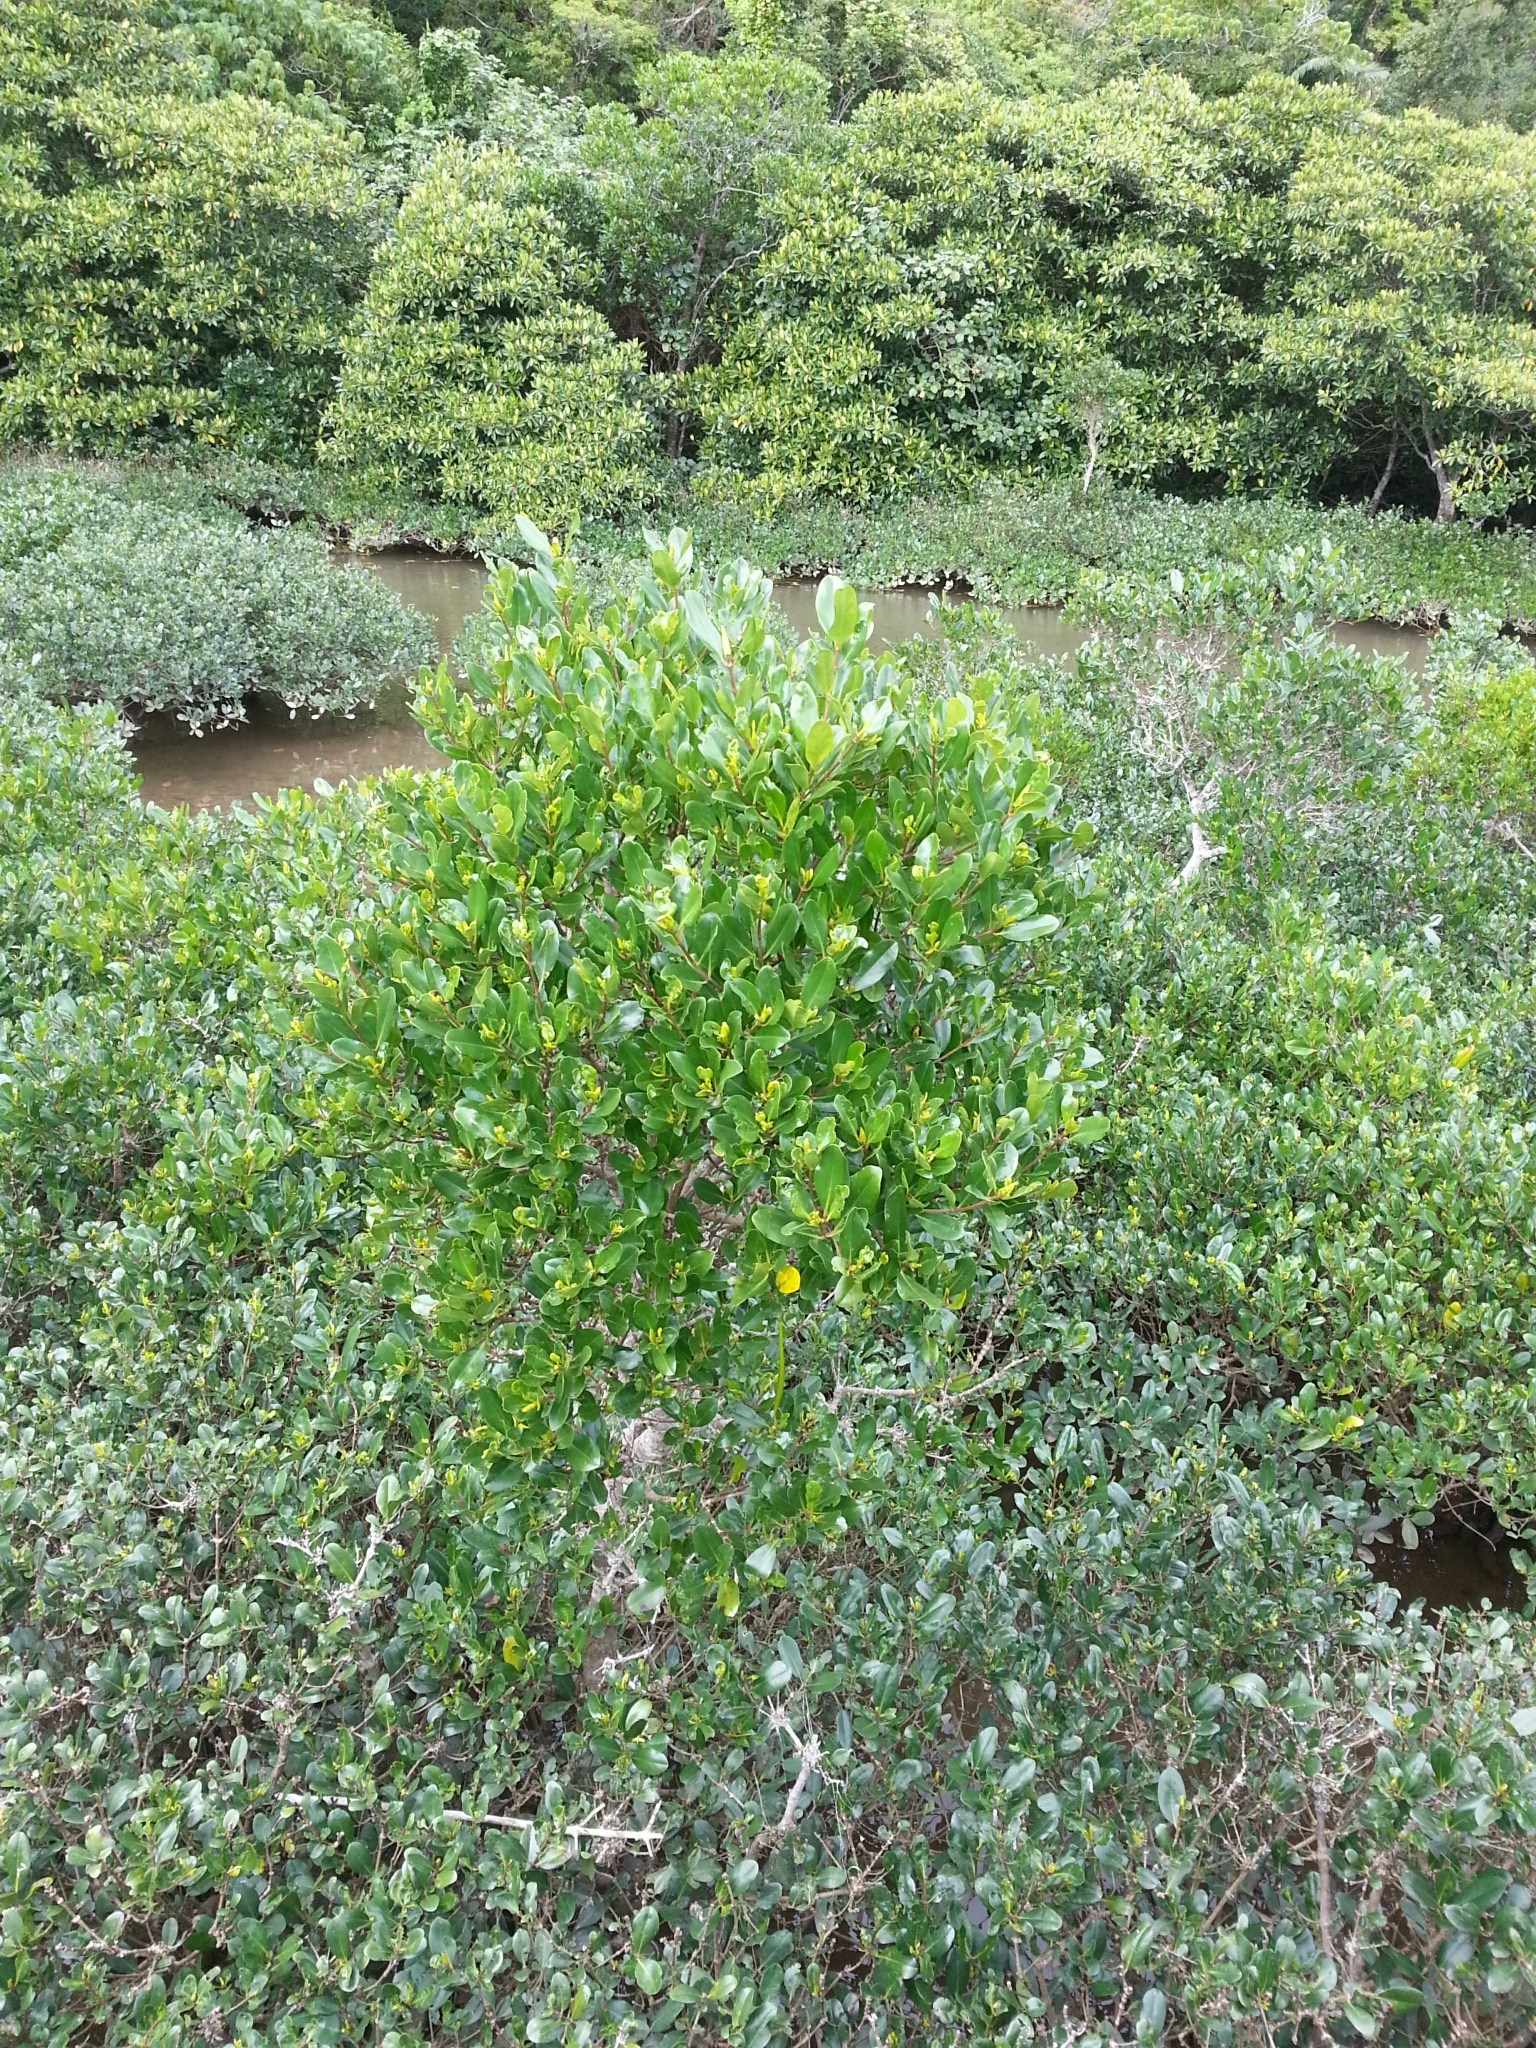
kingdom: Plantae
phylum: Tracheophyta
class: Magnoliopsida
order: Malpighiales
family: Rhizophoraceae
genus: Kandelia
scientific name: Kandelia obovata
